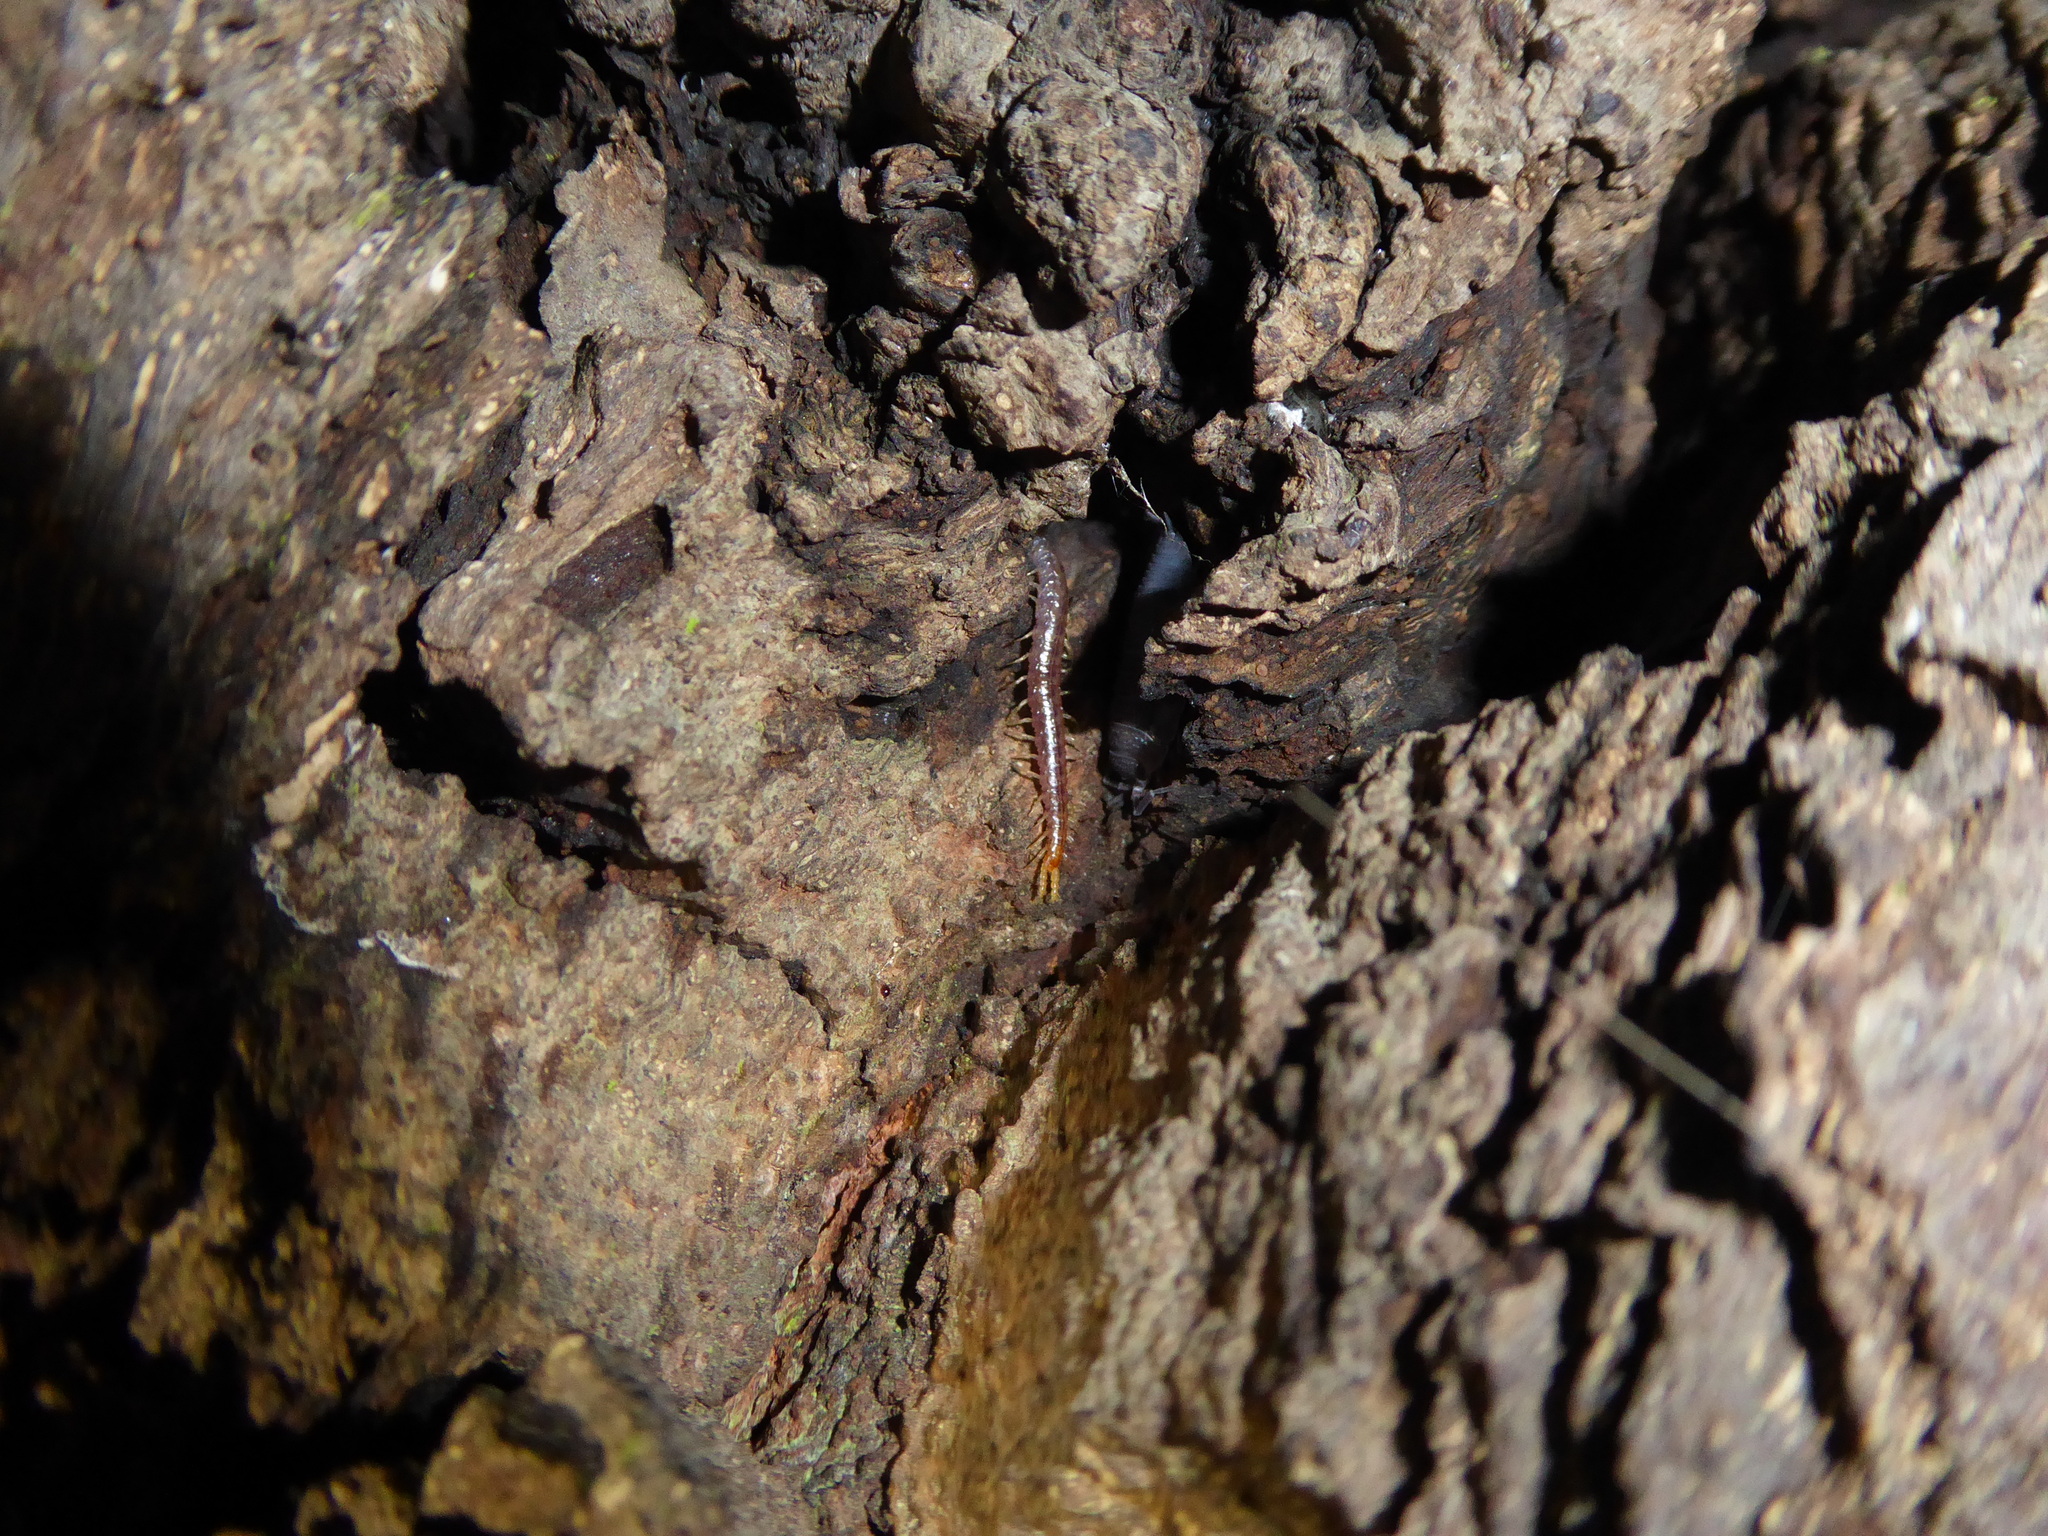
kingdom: Animalia
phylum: Arthropoda
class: Chilopoda
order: Geophilomorpha
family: Geophilidae
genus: Geophilus
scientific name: Geophilus carpophagus
